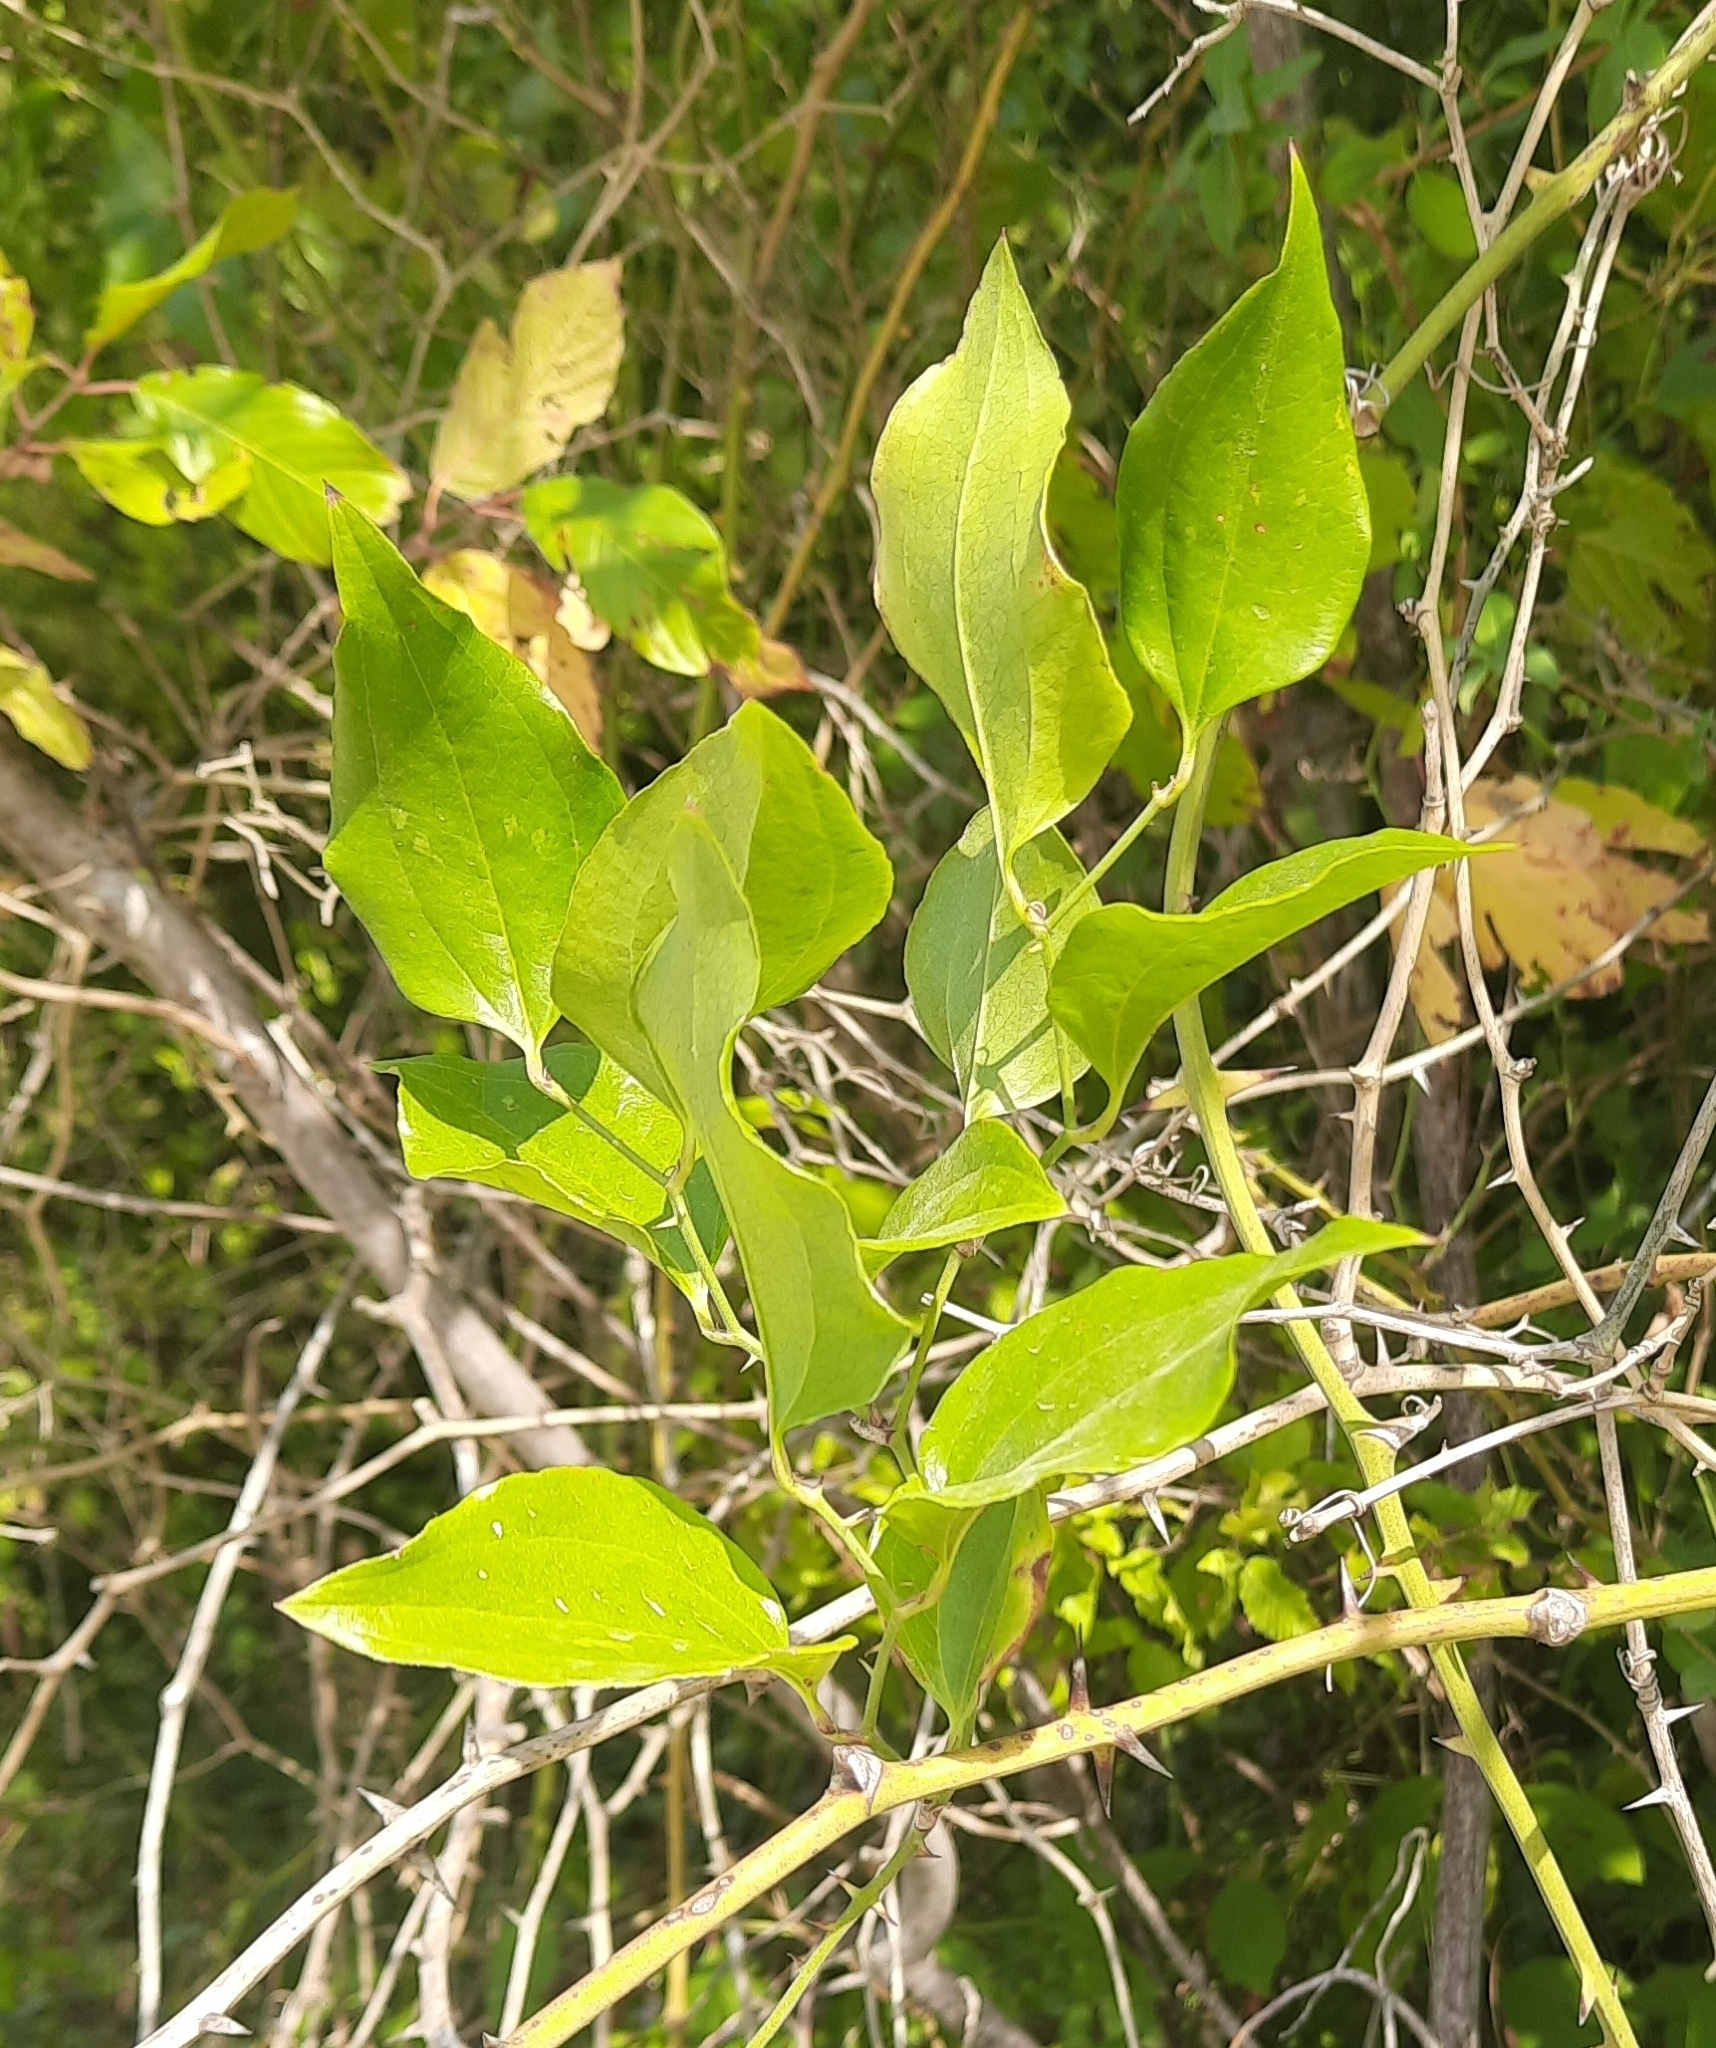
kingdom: Plantae
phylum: Tracheophyta
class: Liliopsida
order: Liliales
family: Smilacaceae
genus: Smilax
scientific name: Smilax excelsa
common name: Larger smilax
